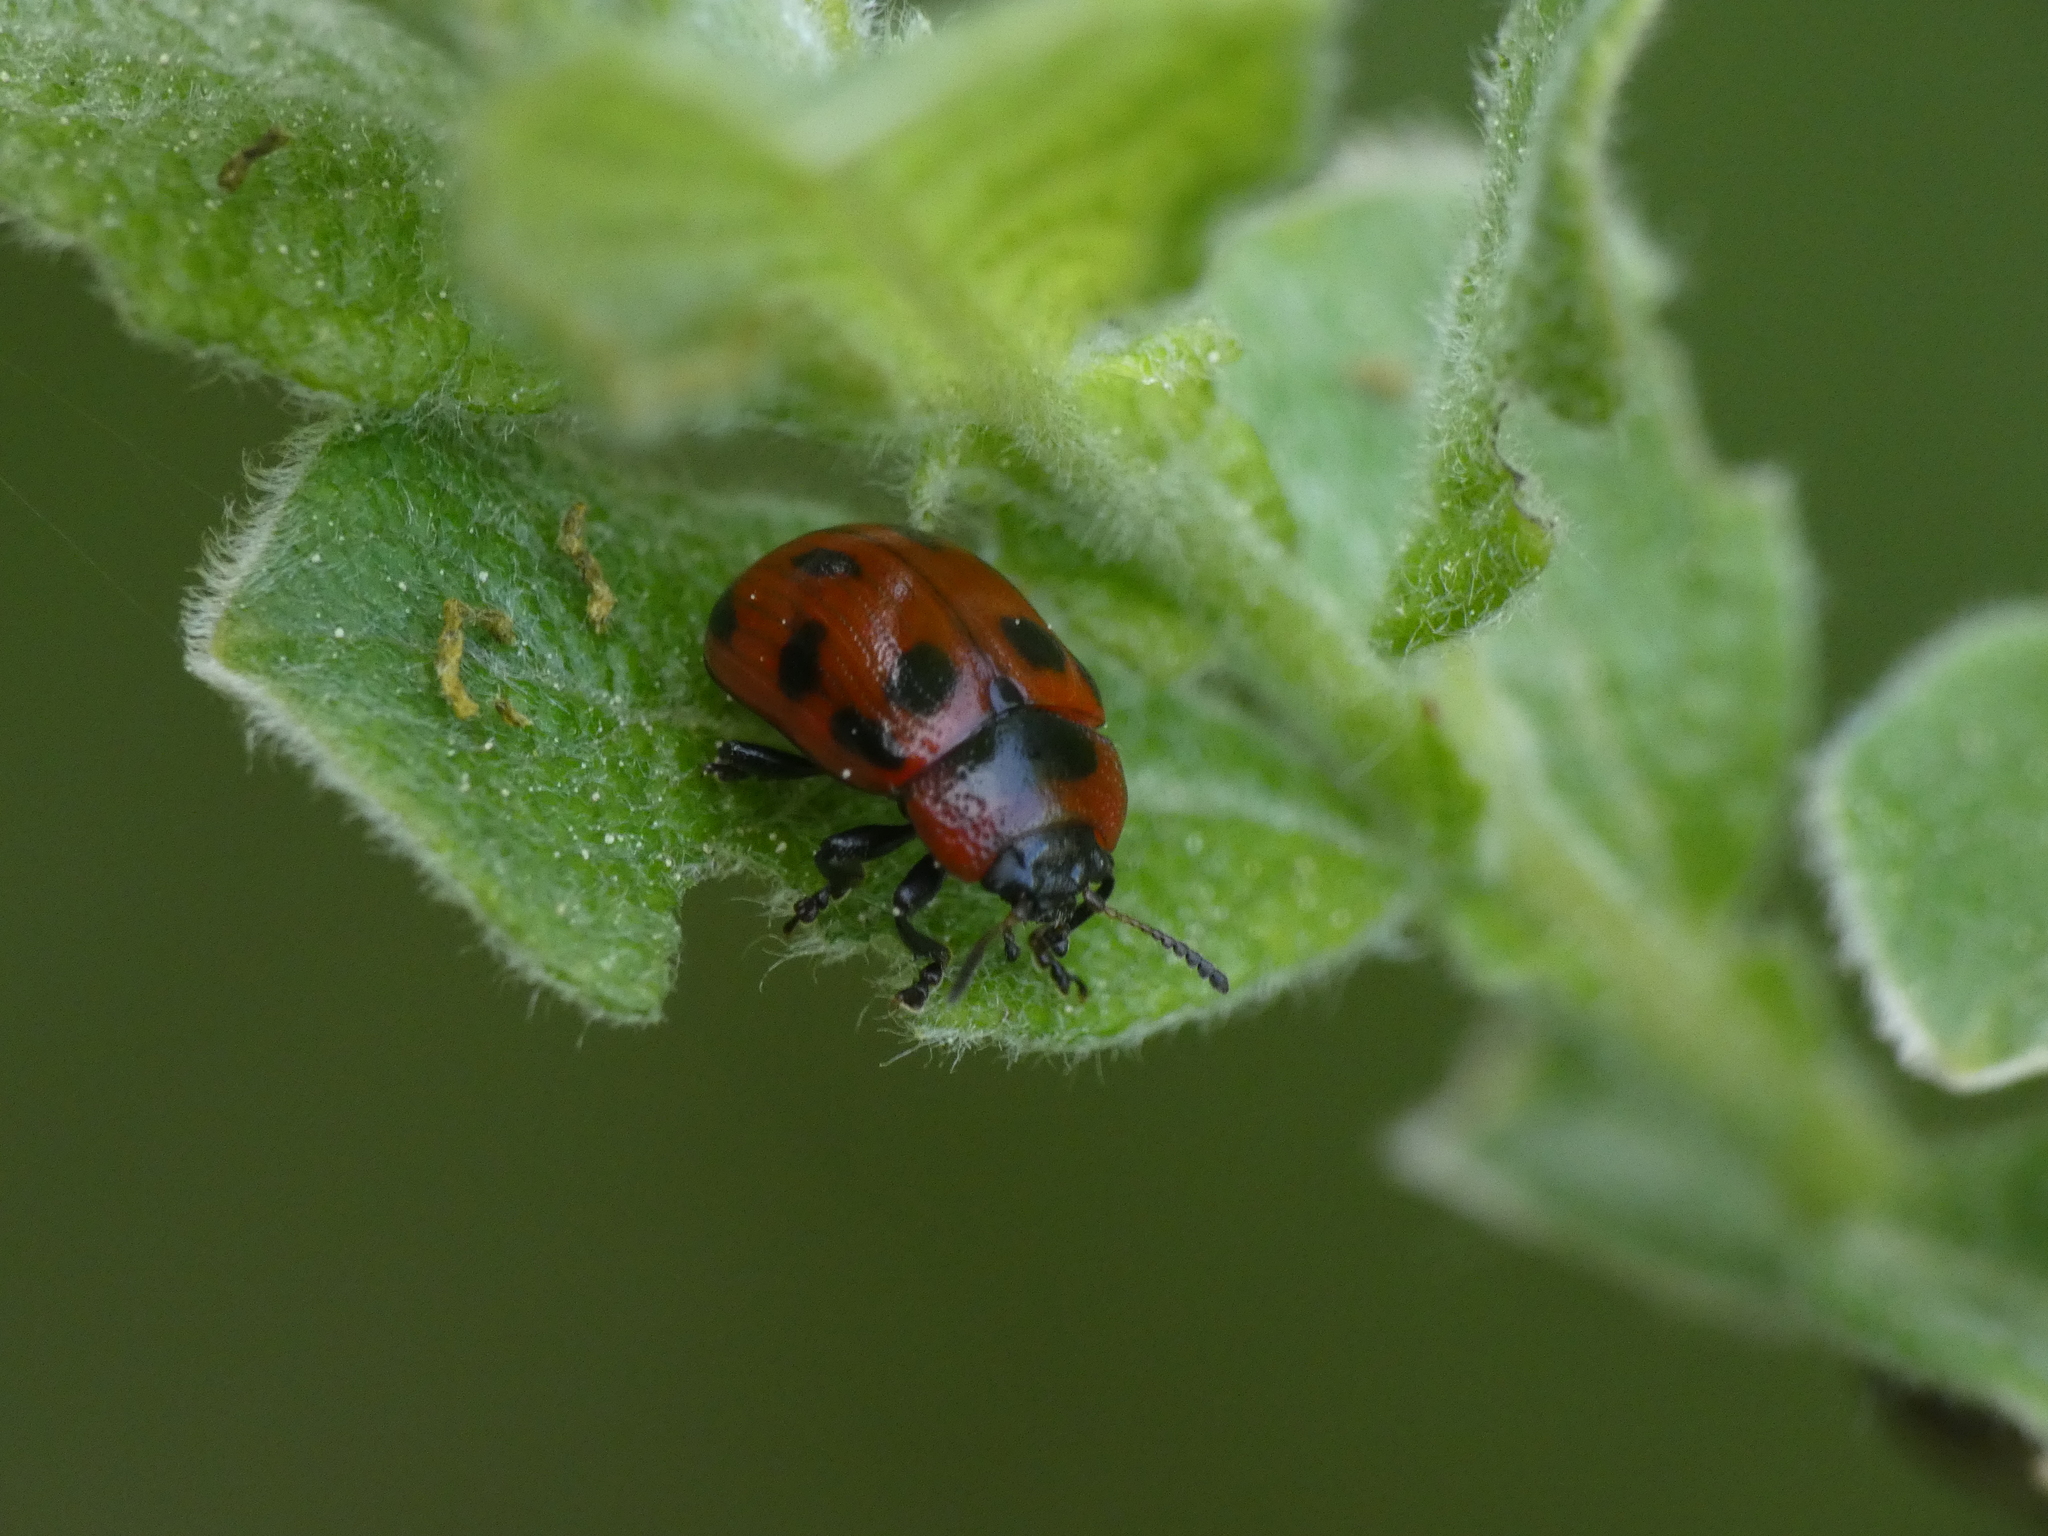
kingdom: Animalia
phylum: Arthropoda
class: Insecta
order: Coleoptera
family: Chrysomelidae
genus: Gonioctena
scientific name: Gonioctena viminalis
